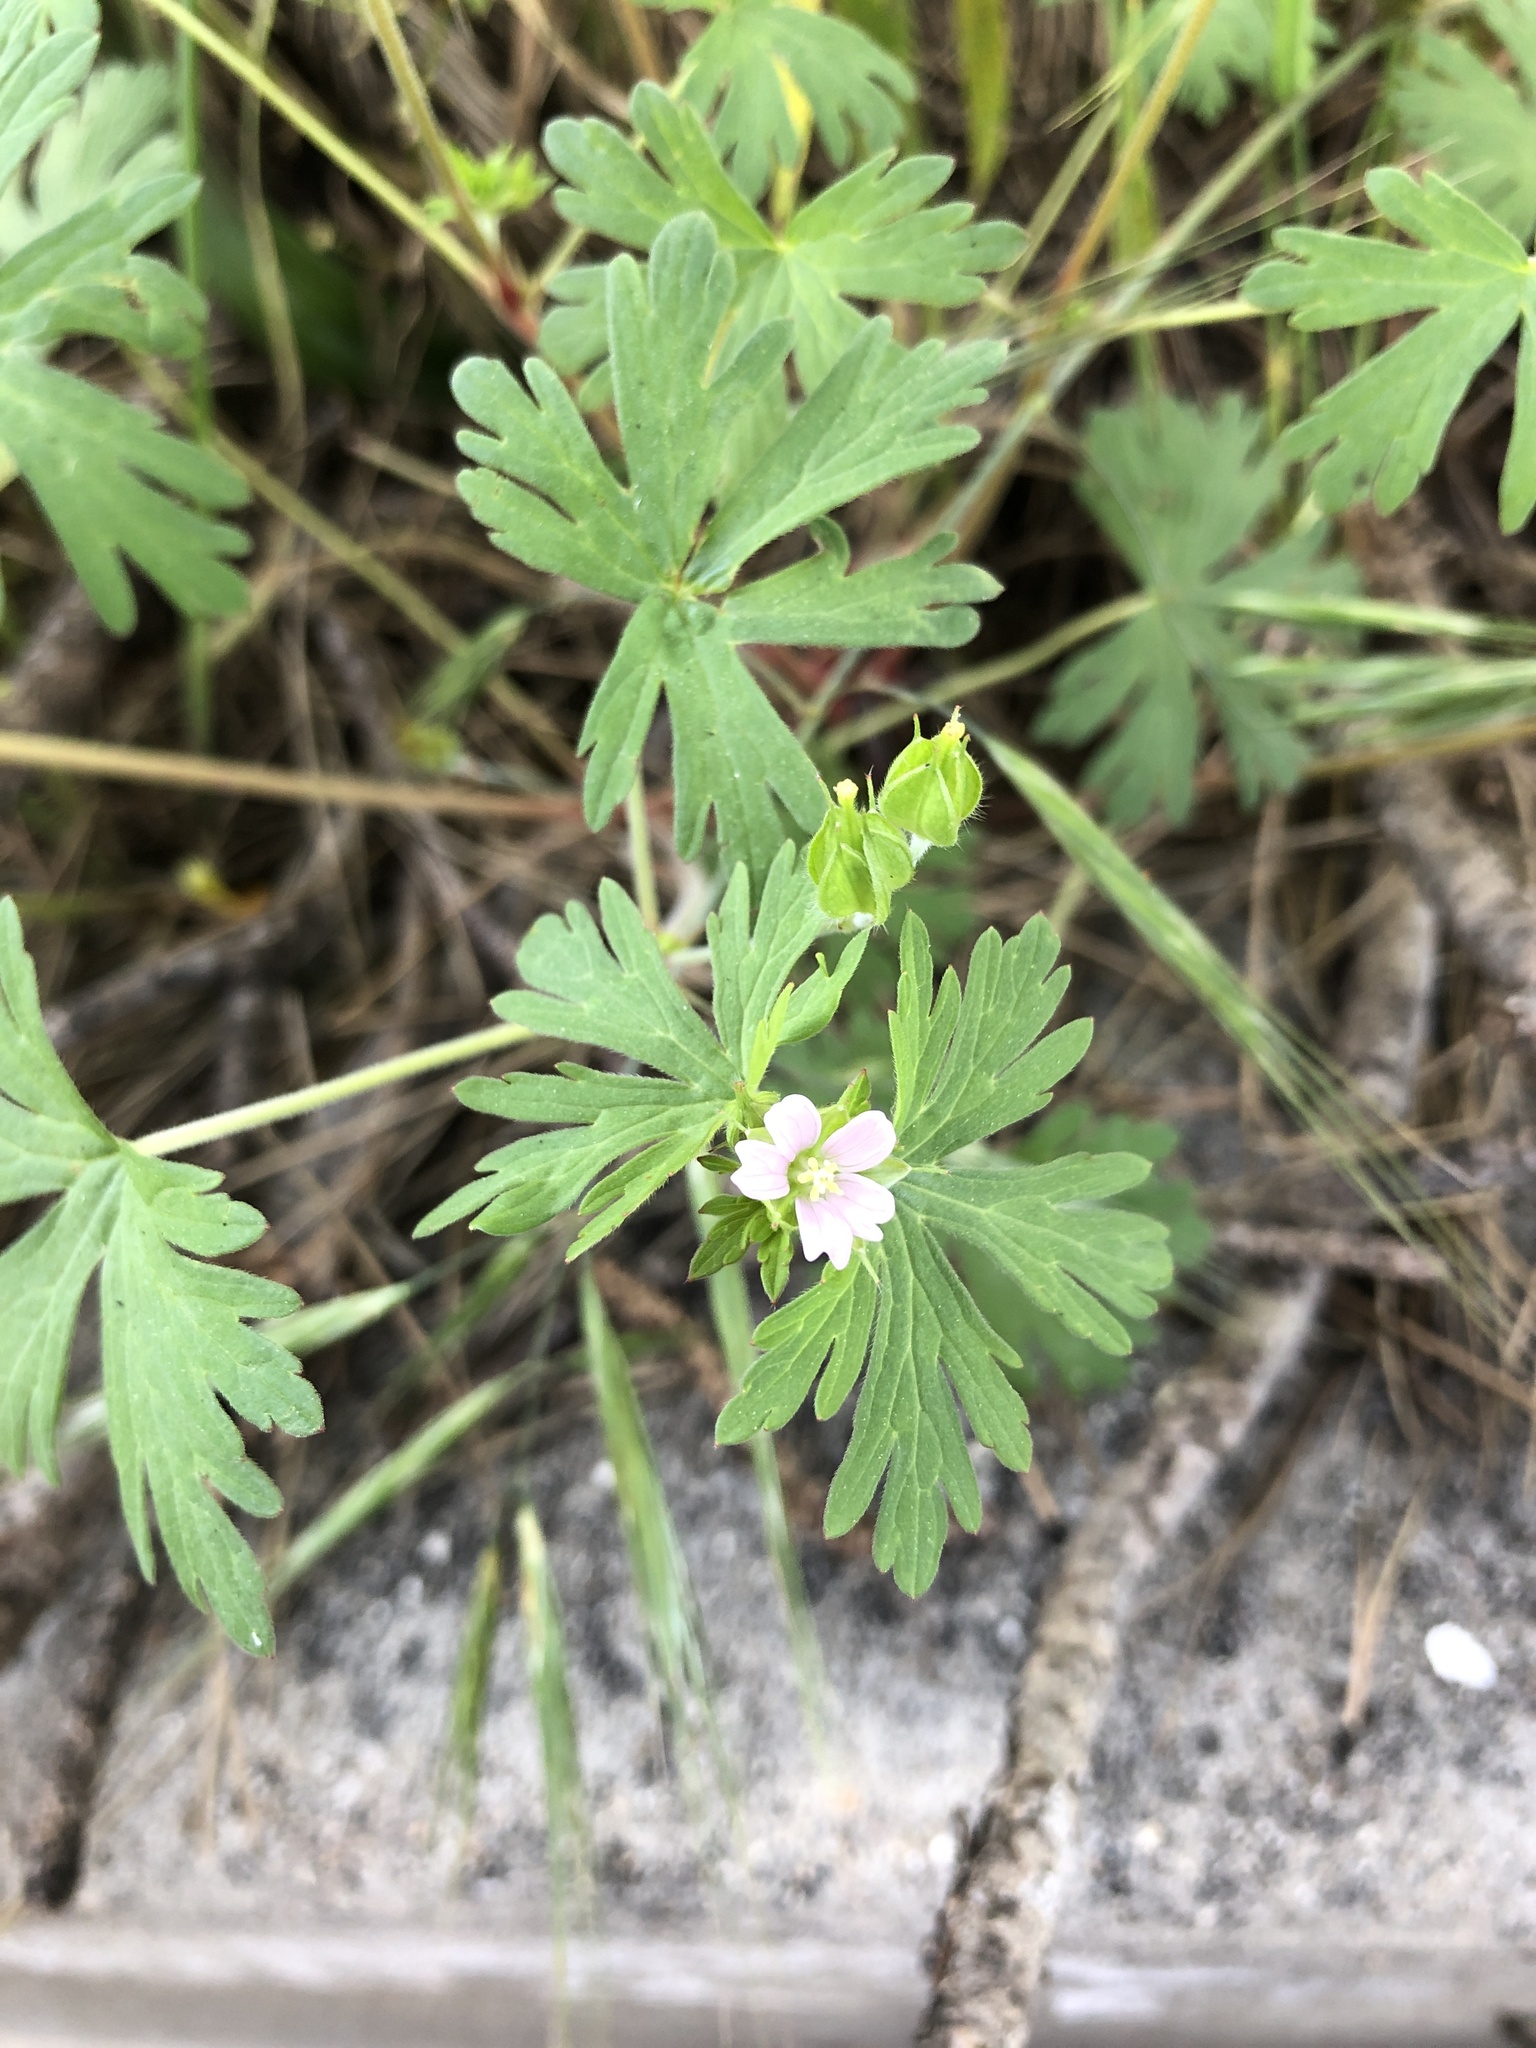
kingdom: Plantae
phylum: Tracheophyta
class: Magnoliopsida
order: Geraniales
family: Geraniaceae
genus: Geranium
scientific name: Geranium carolinianum
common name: Carolina crane's-bill
